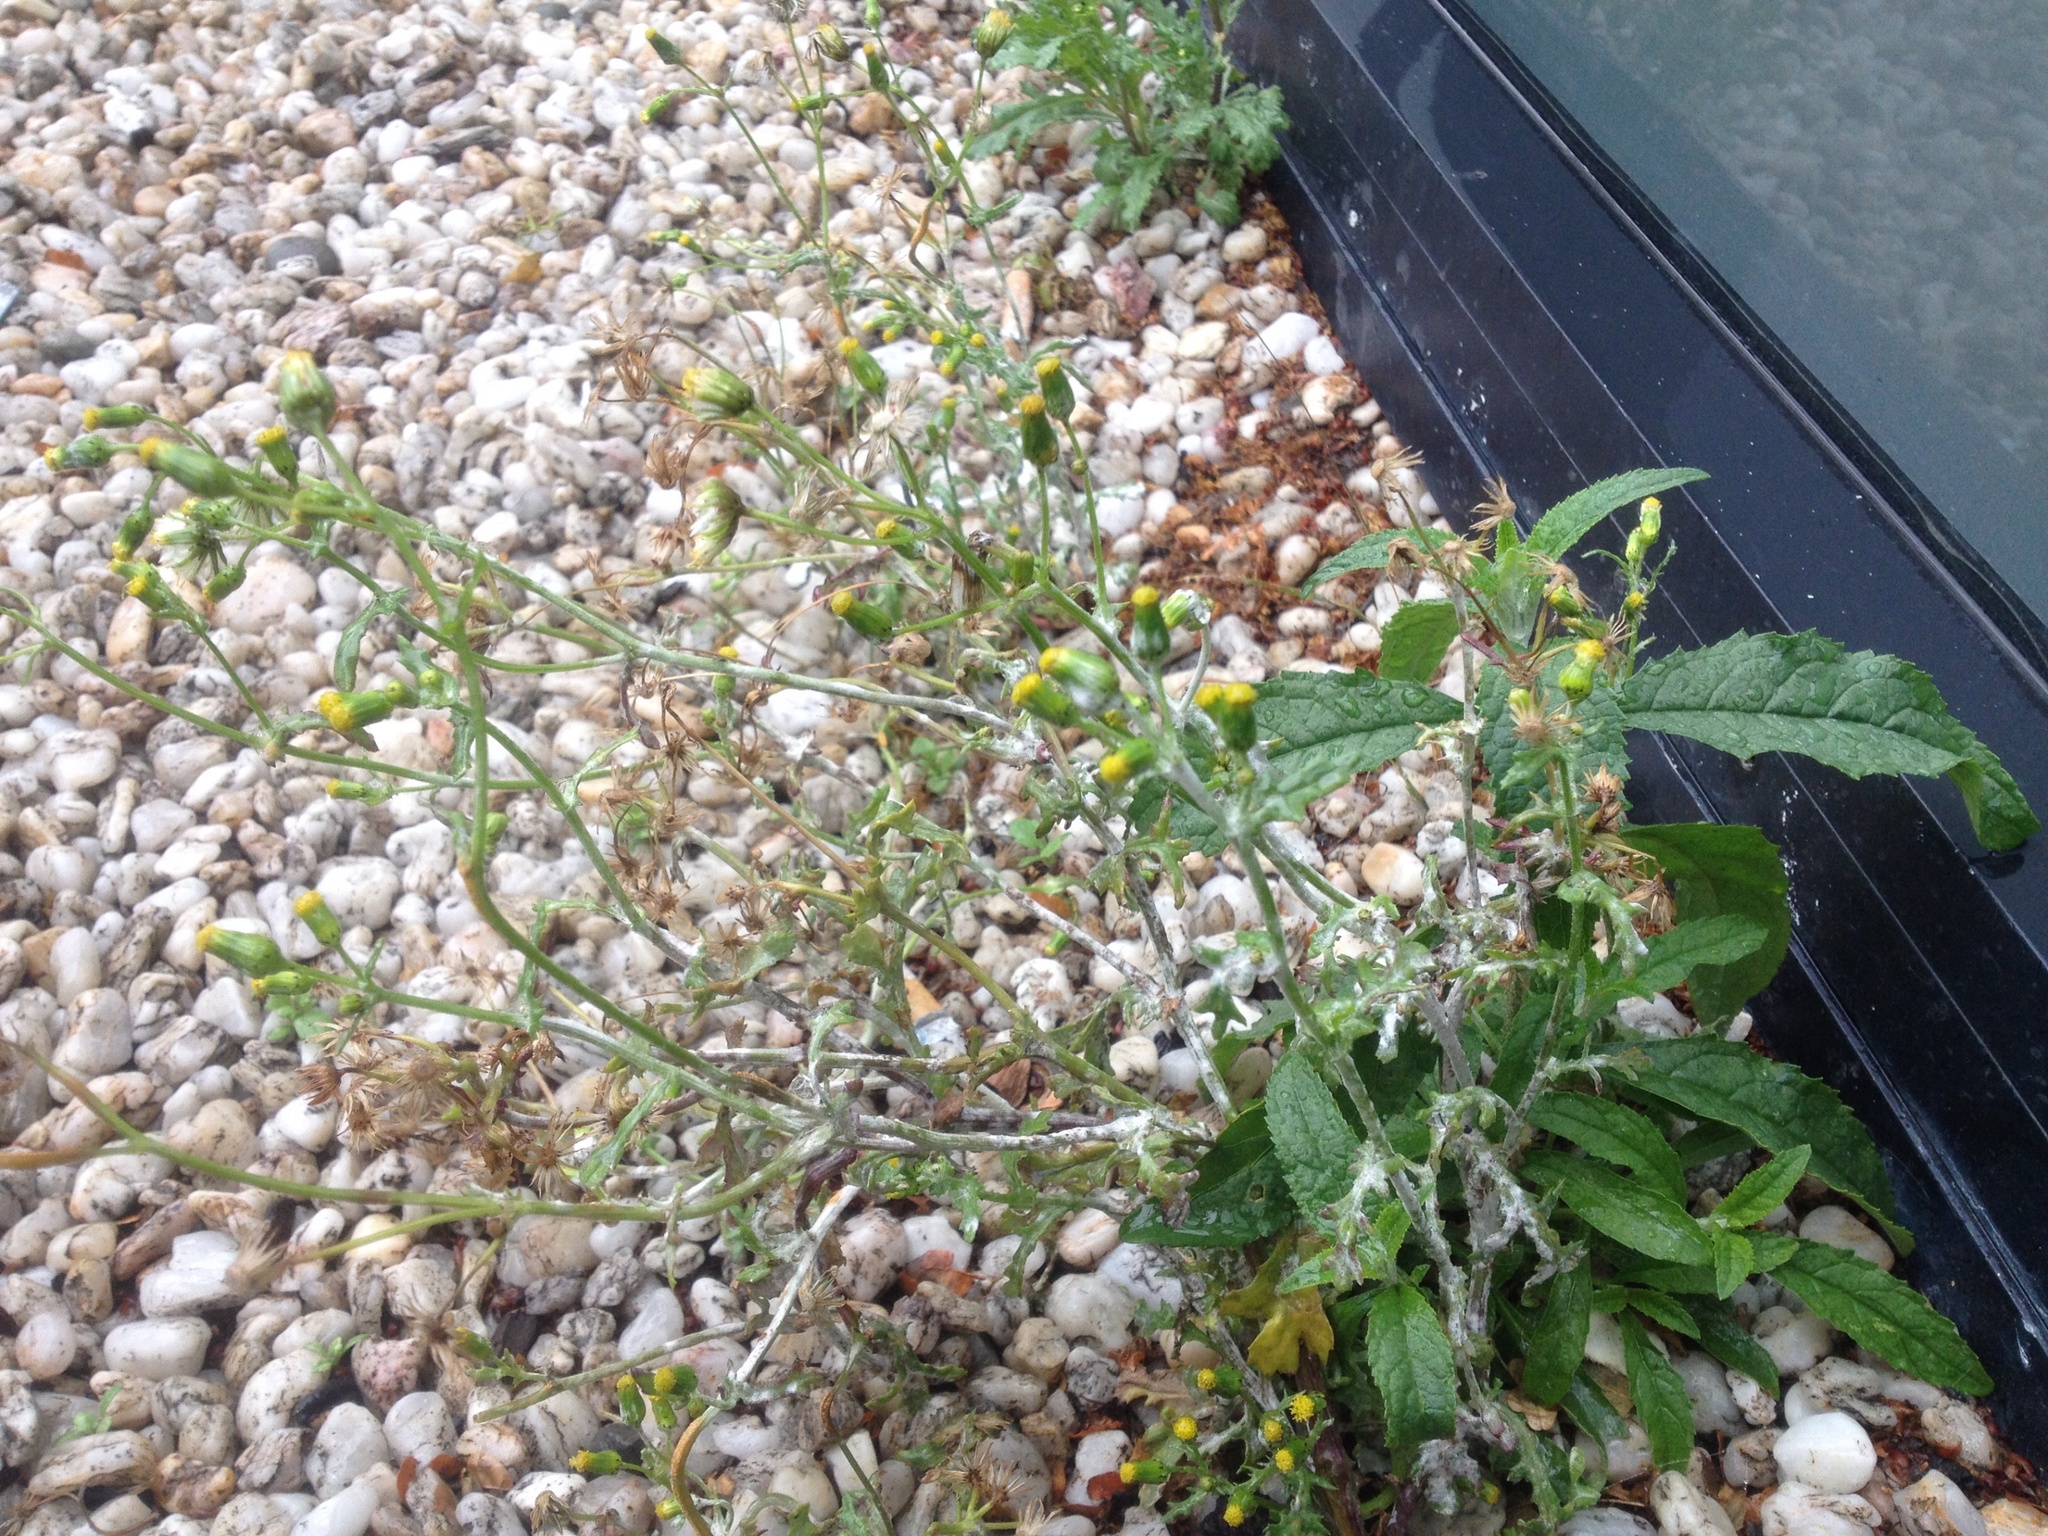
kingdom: Fungi
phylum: Ascomycota
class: Leotiomycetes
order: Helotiales
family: Erysiphaceae
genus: Golovinomyces
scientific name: Golovinomyces fischeri
